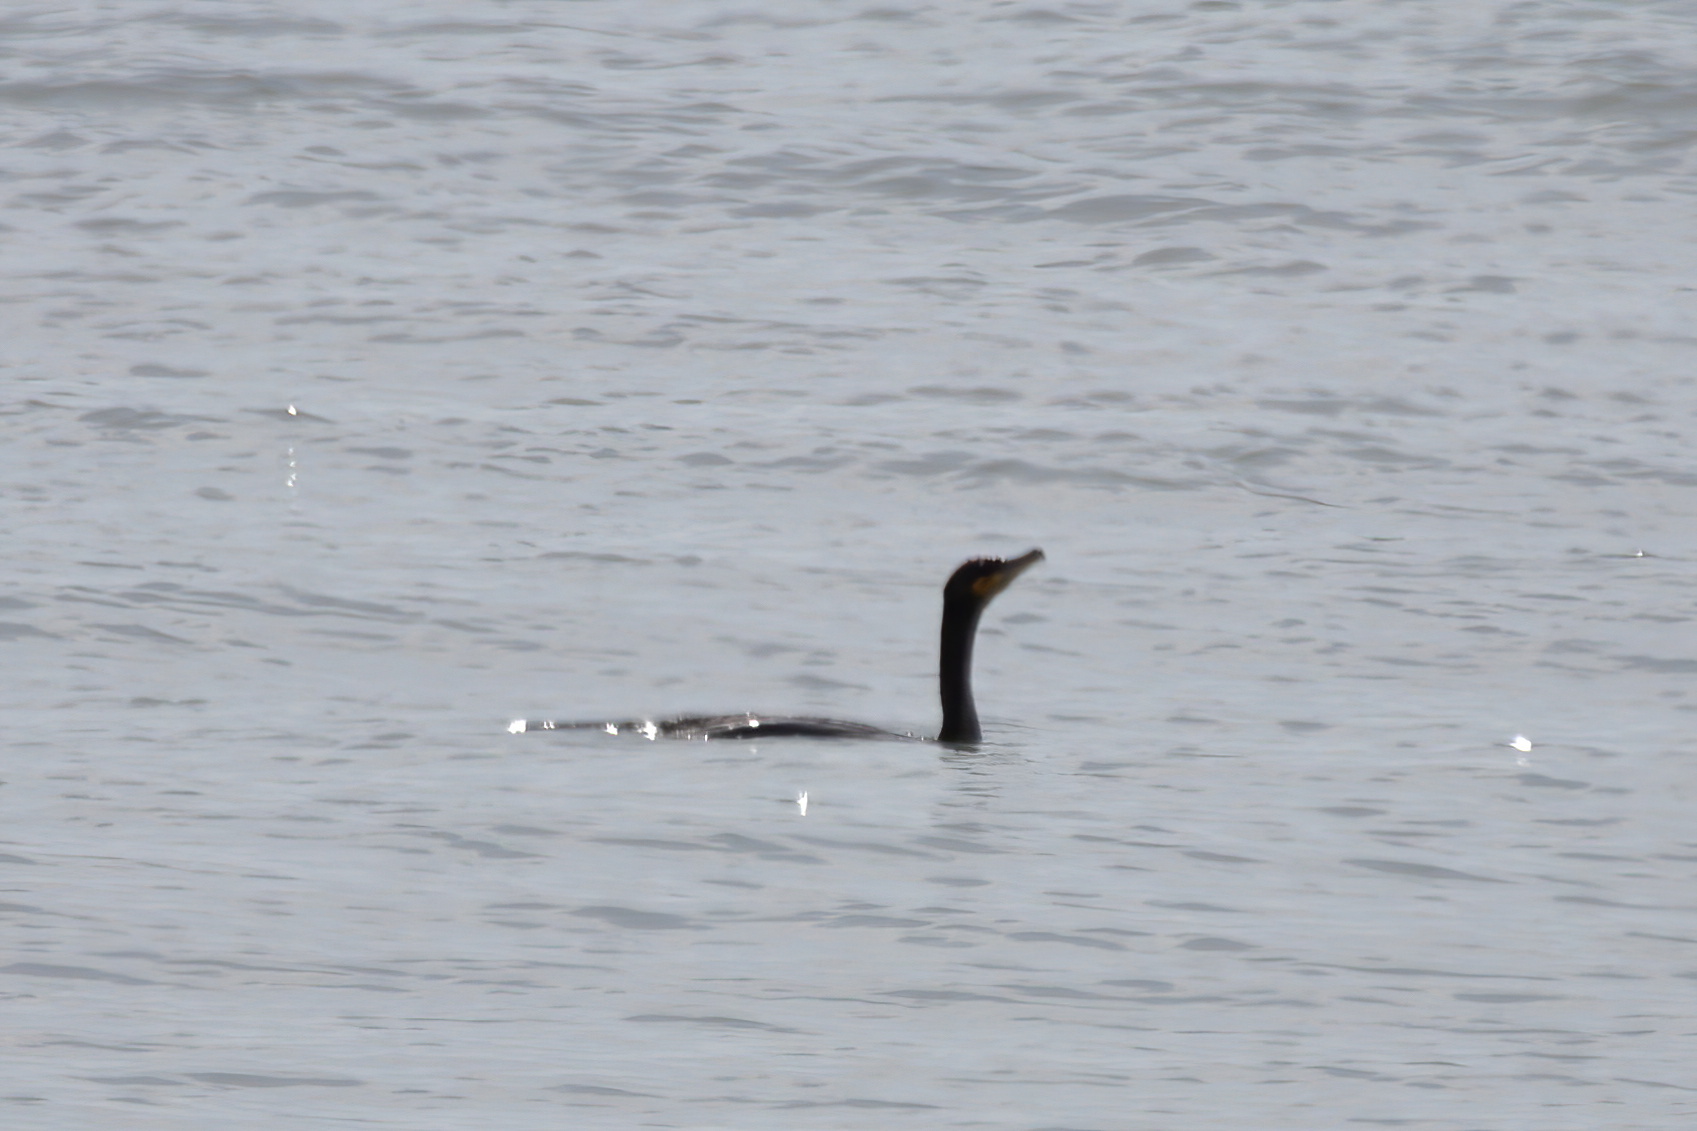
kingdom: Animalia
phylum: Chordata
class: Aves
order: Suliformes
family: Phalacrocoracidae
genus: Phalacrocorax
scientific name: Phalacrocorax auritus
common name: Double-crested cormorant
